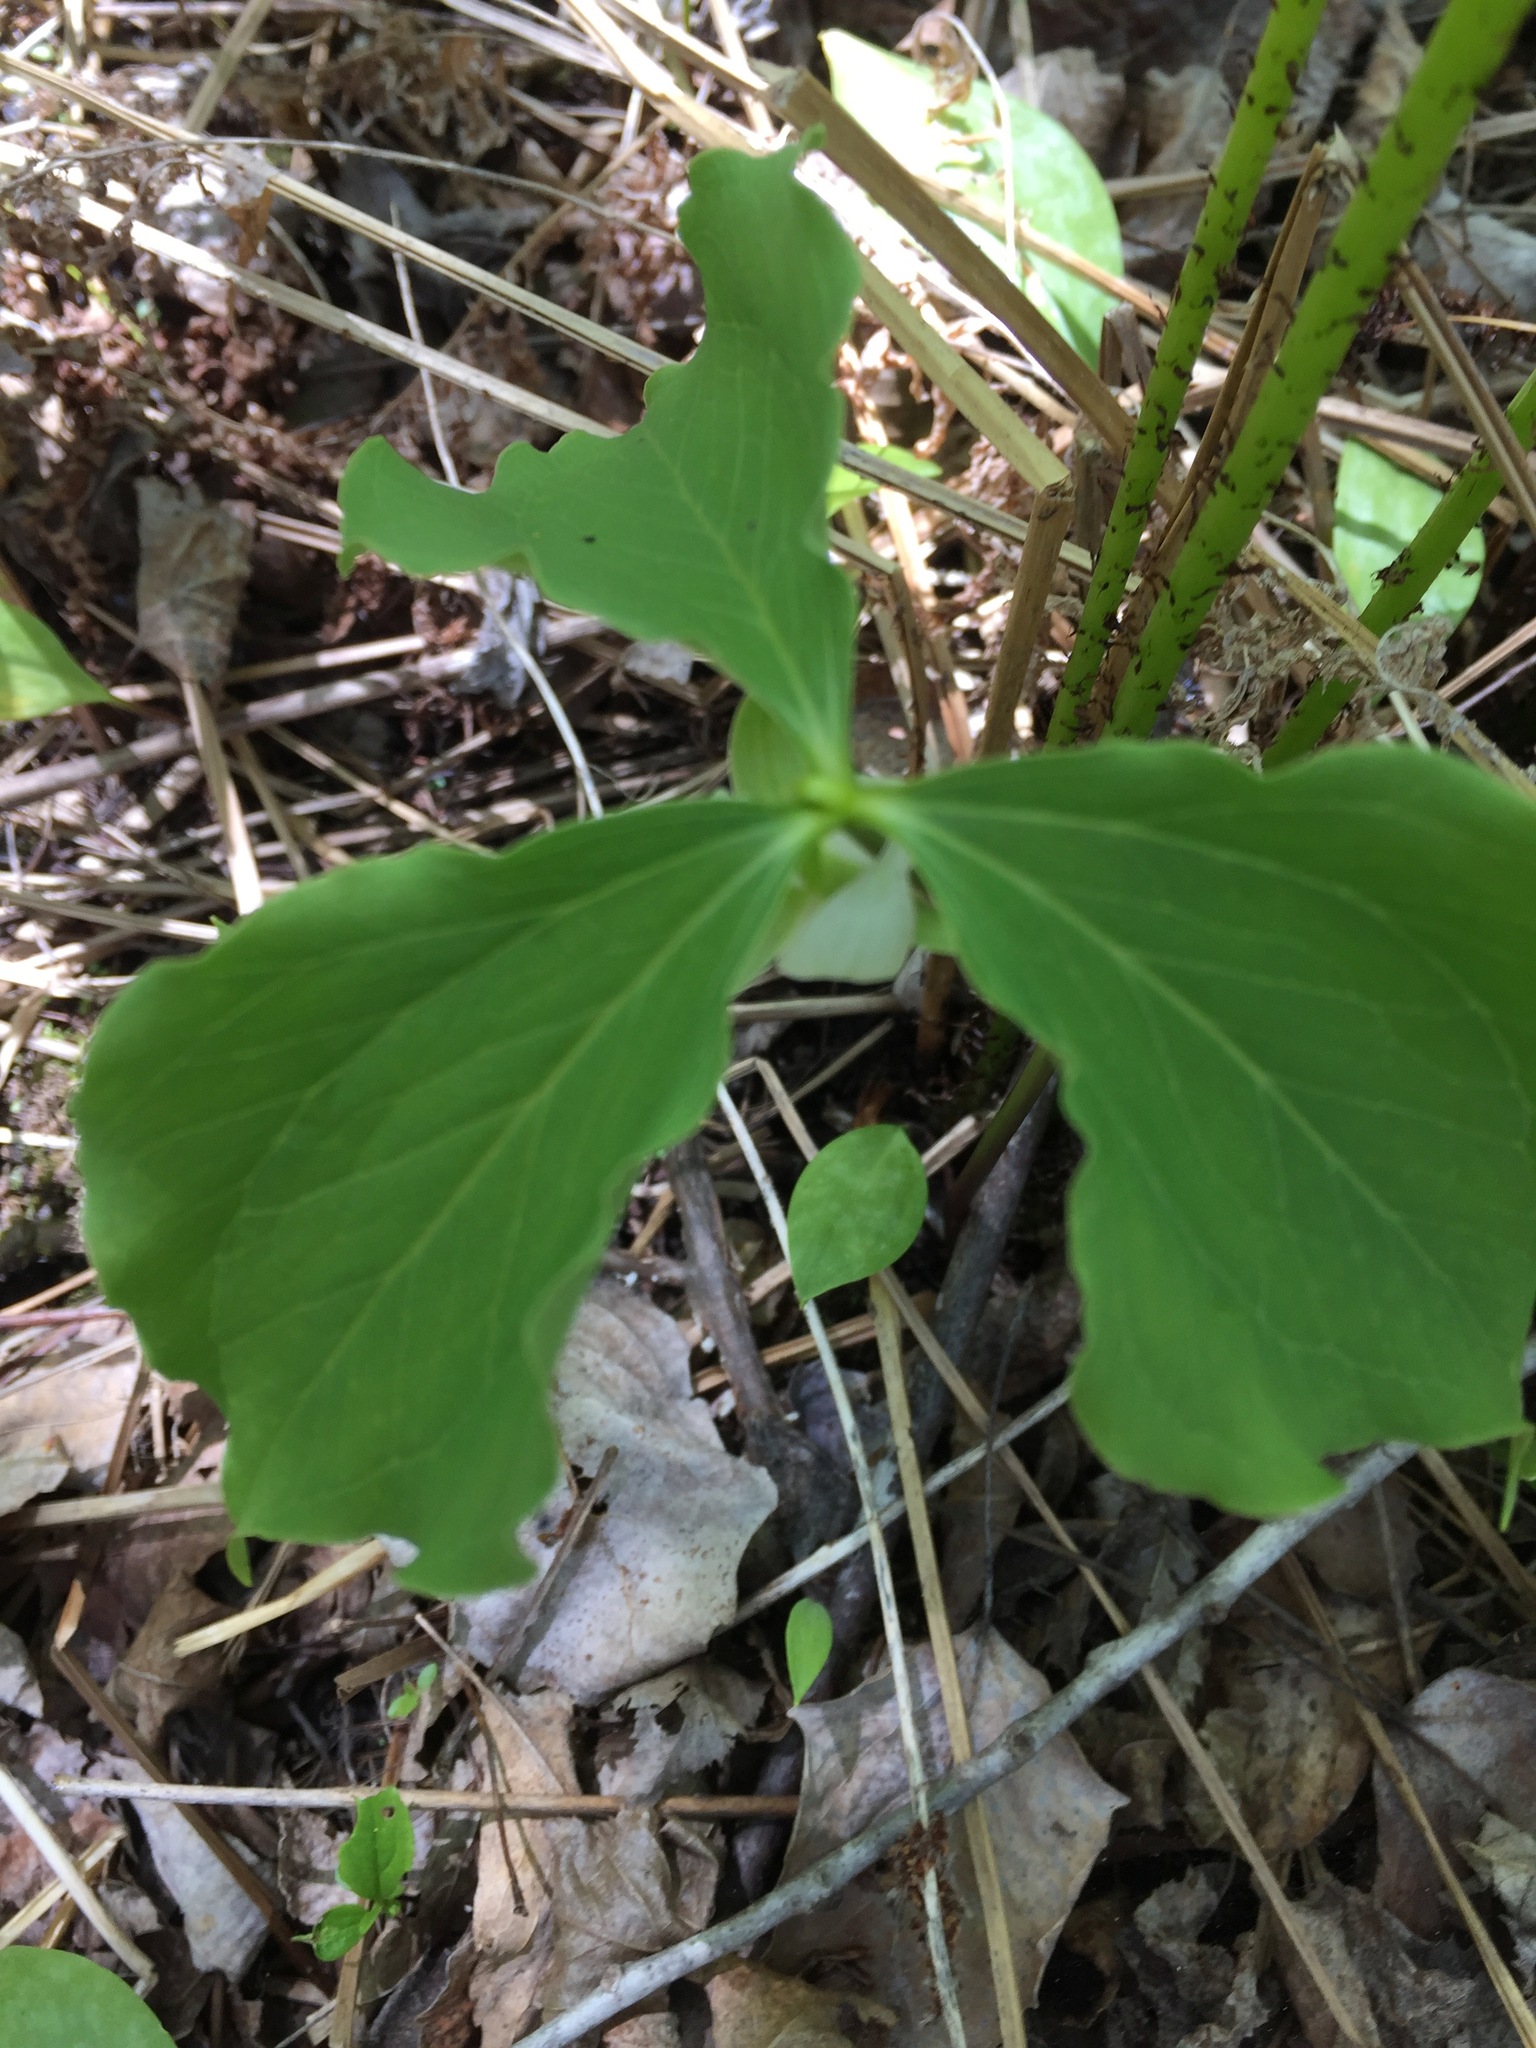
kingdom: Plantae
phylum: Tracheophyta
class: Liliopsida
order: Liliales
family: Melanthiaceae
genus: Trillium
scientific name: Trillium cernuum
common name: Nodding trillium
